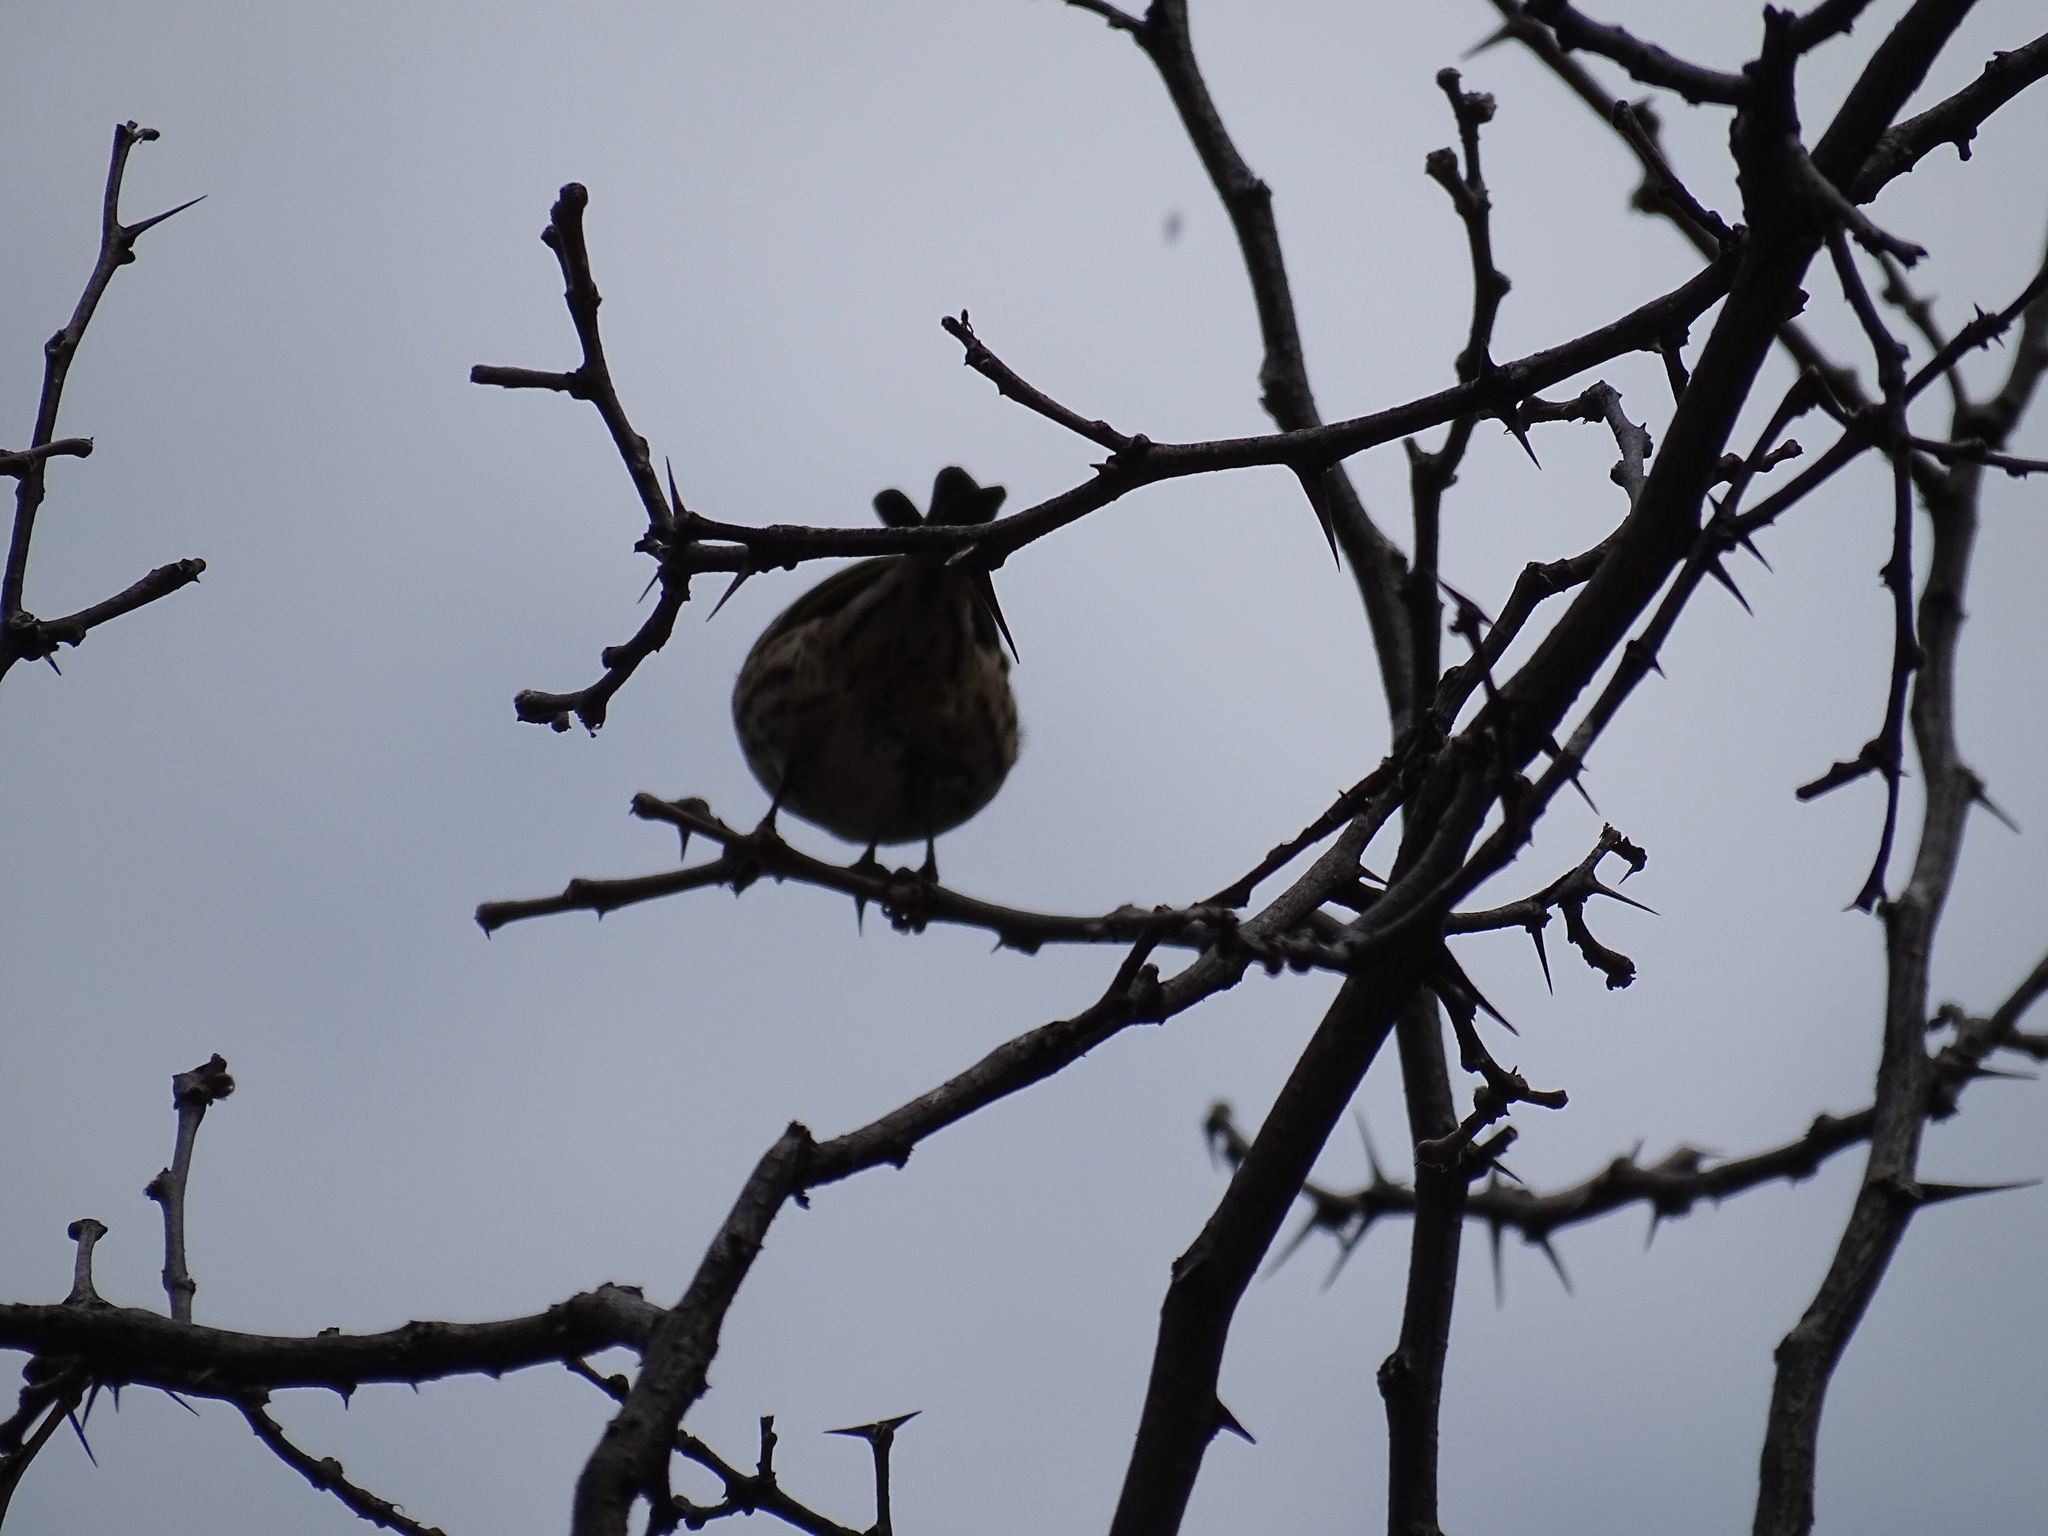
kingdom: Animalia
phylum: Chordata
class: Aves
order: Passeriformes
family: Fringillidae
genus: Spinus
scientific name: Spinus pinus
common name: Pine siskin
